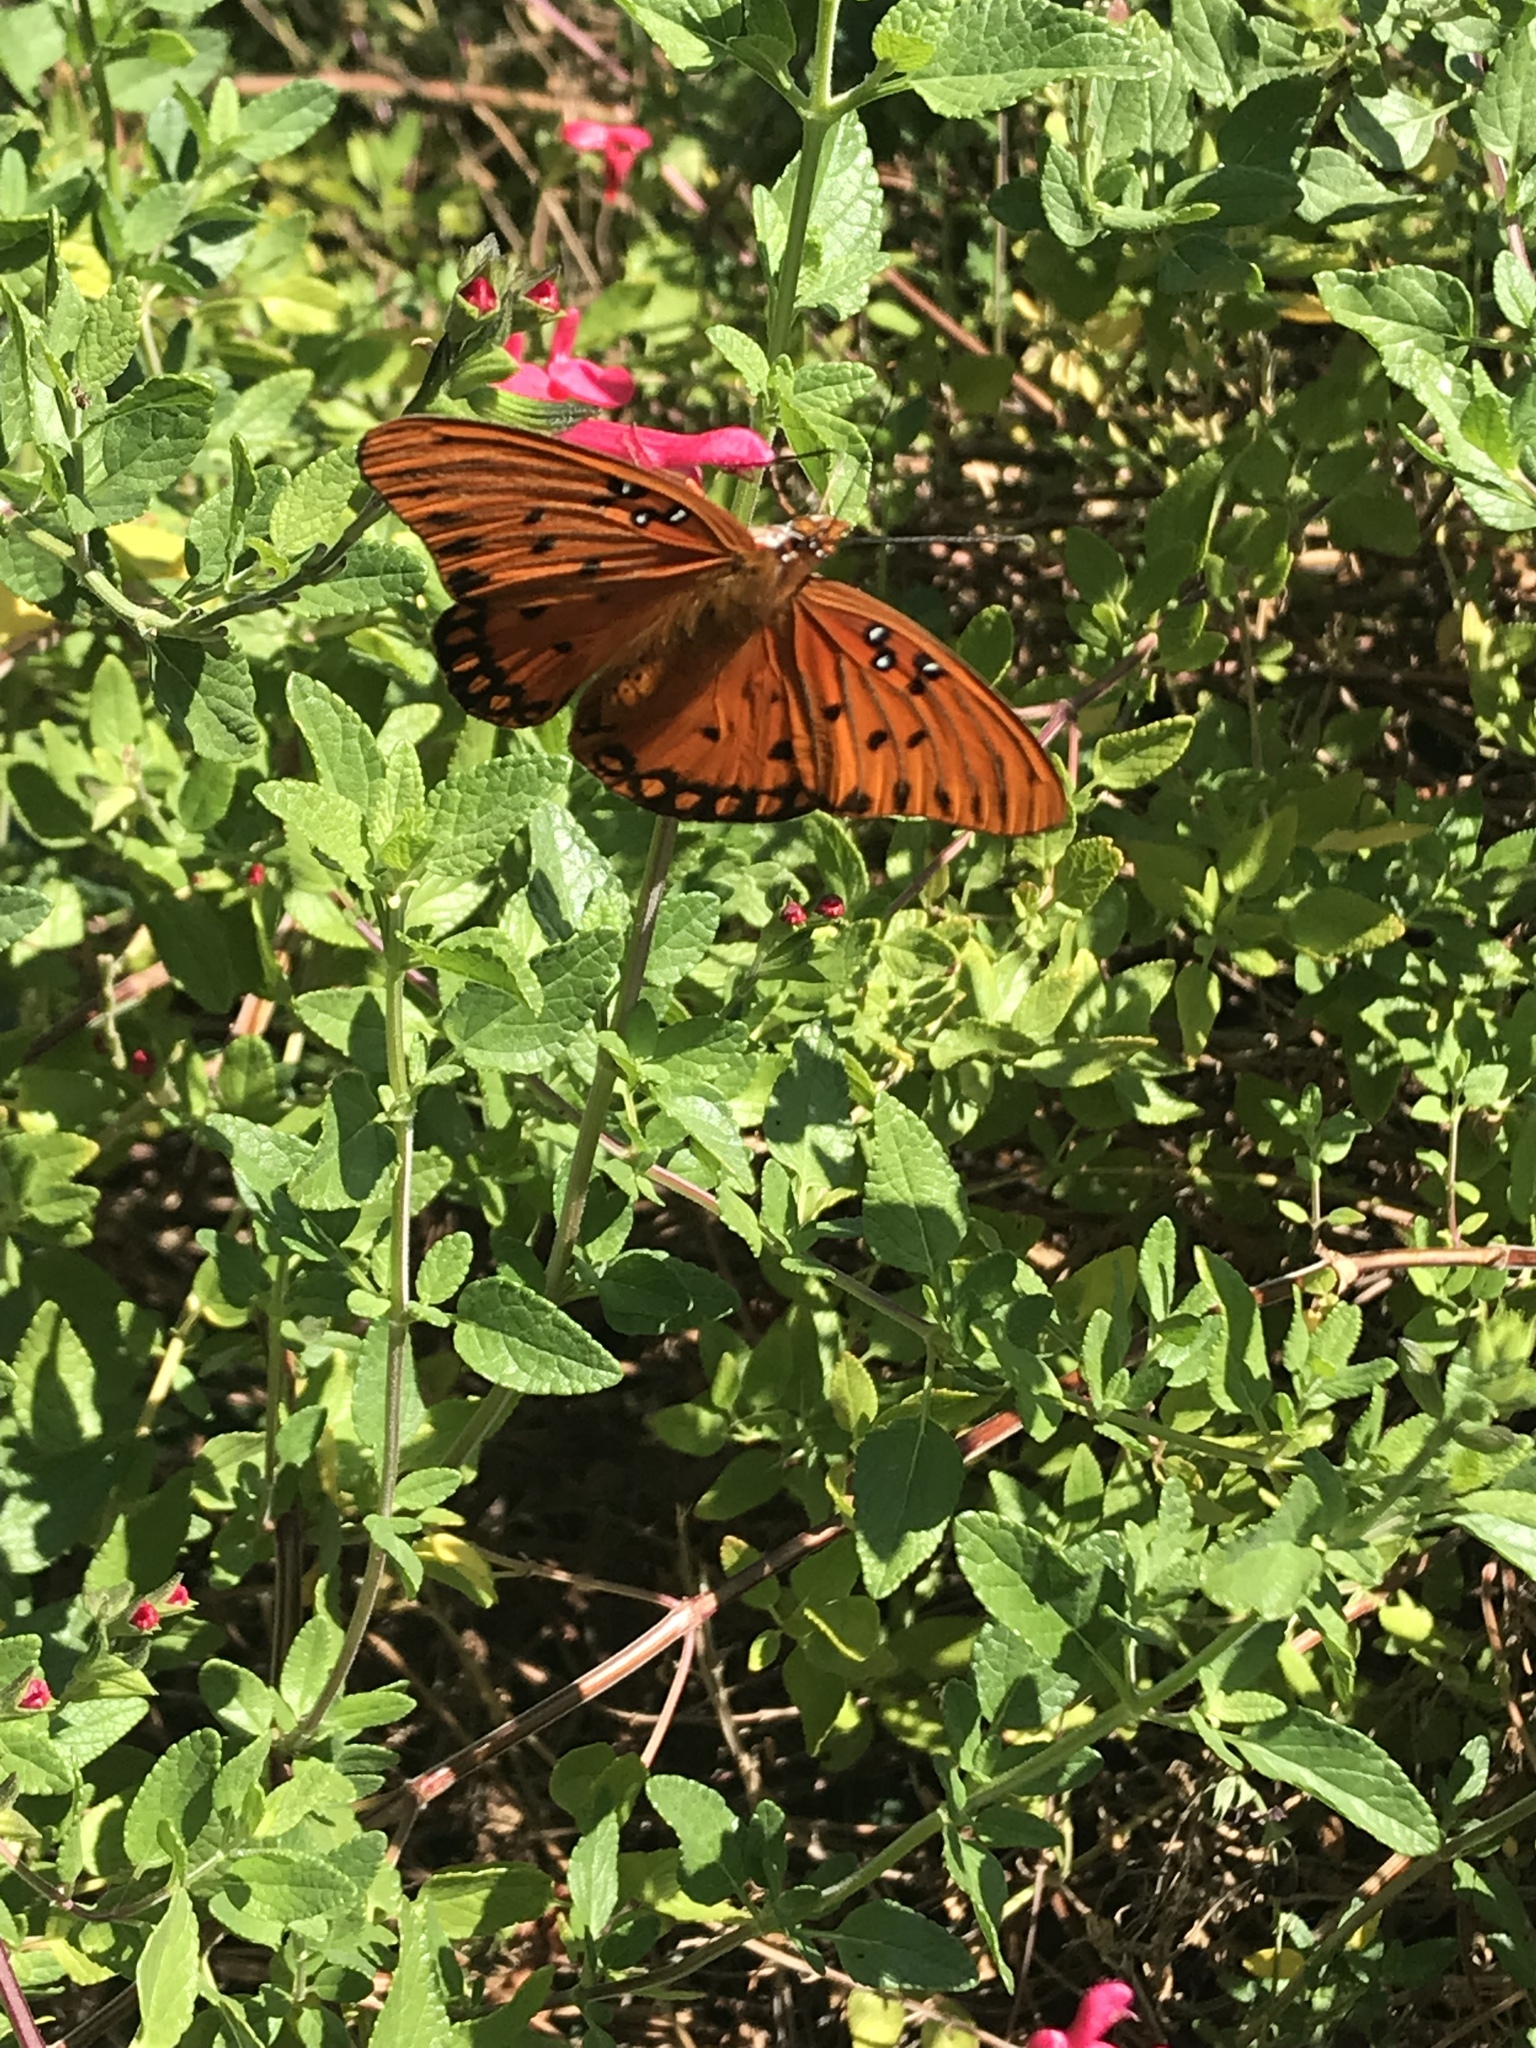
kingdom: Animalia
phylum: Arthropoda
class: Insecta
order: Lepidoptera
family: Nymphalidae
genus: Dione
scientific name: Dione vanillae
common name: Gulf fritillary
